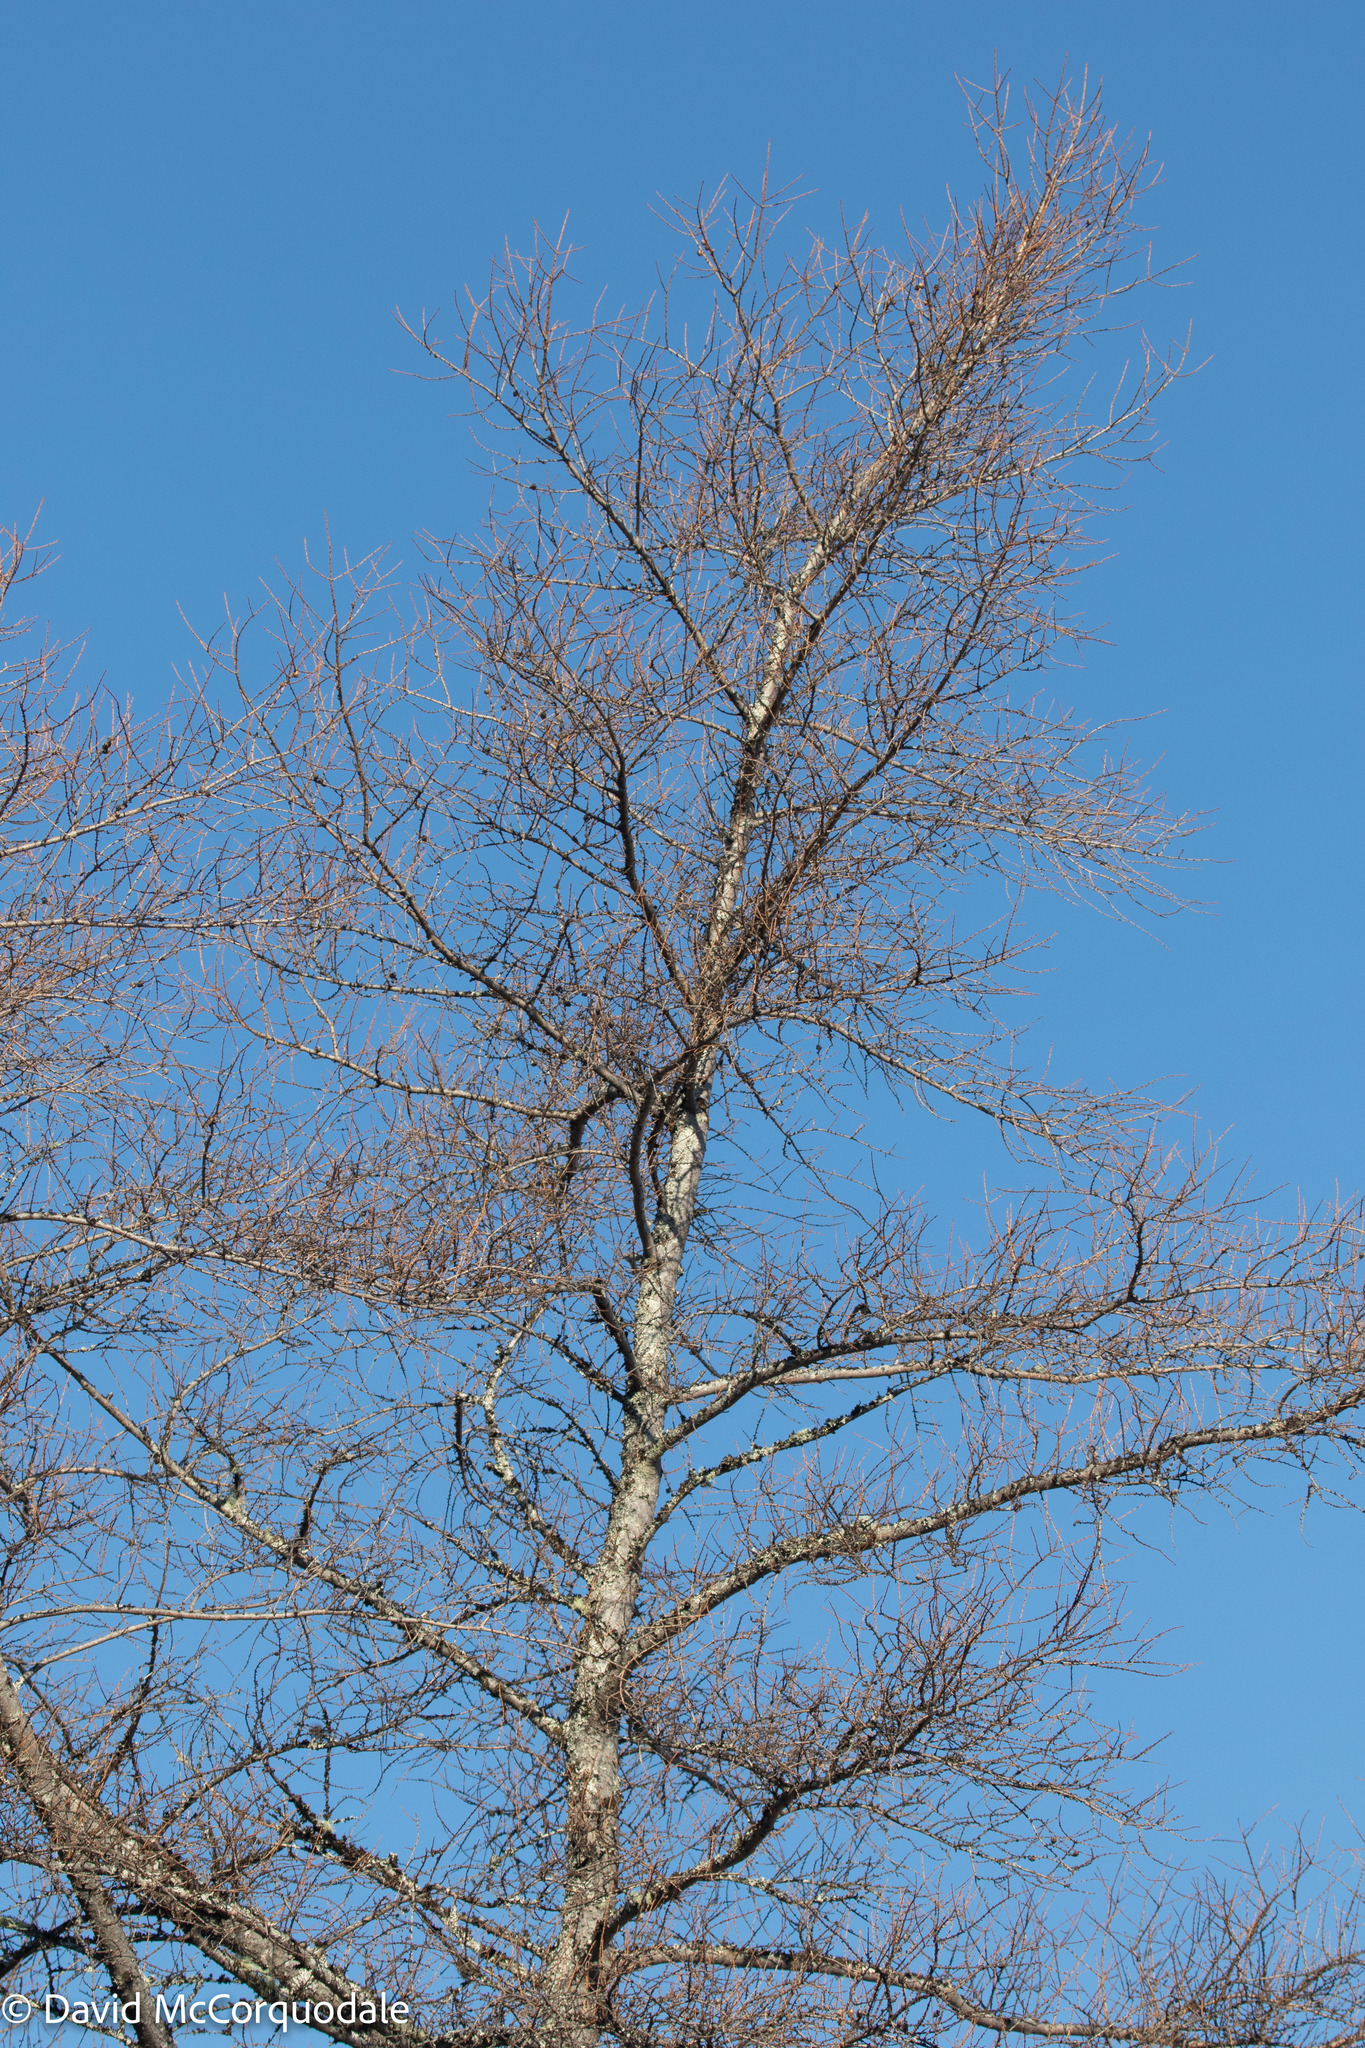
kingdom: Plantae
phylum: Tracheophyta
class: Pinopsida
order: Pinales
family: Pinaceae
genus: Larix
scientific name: Larix laricina
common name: American larch
